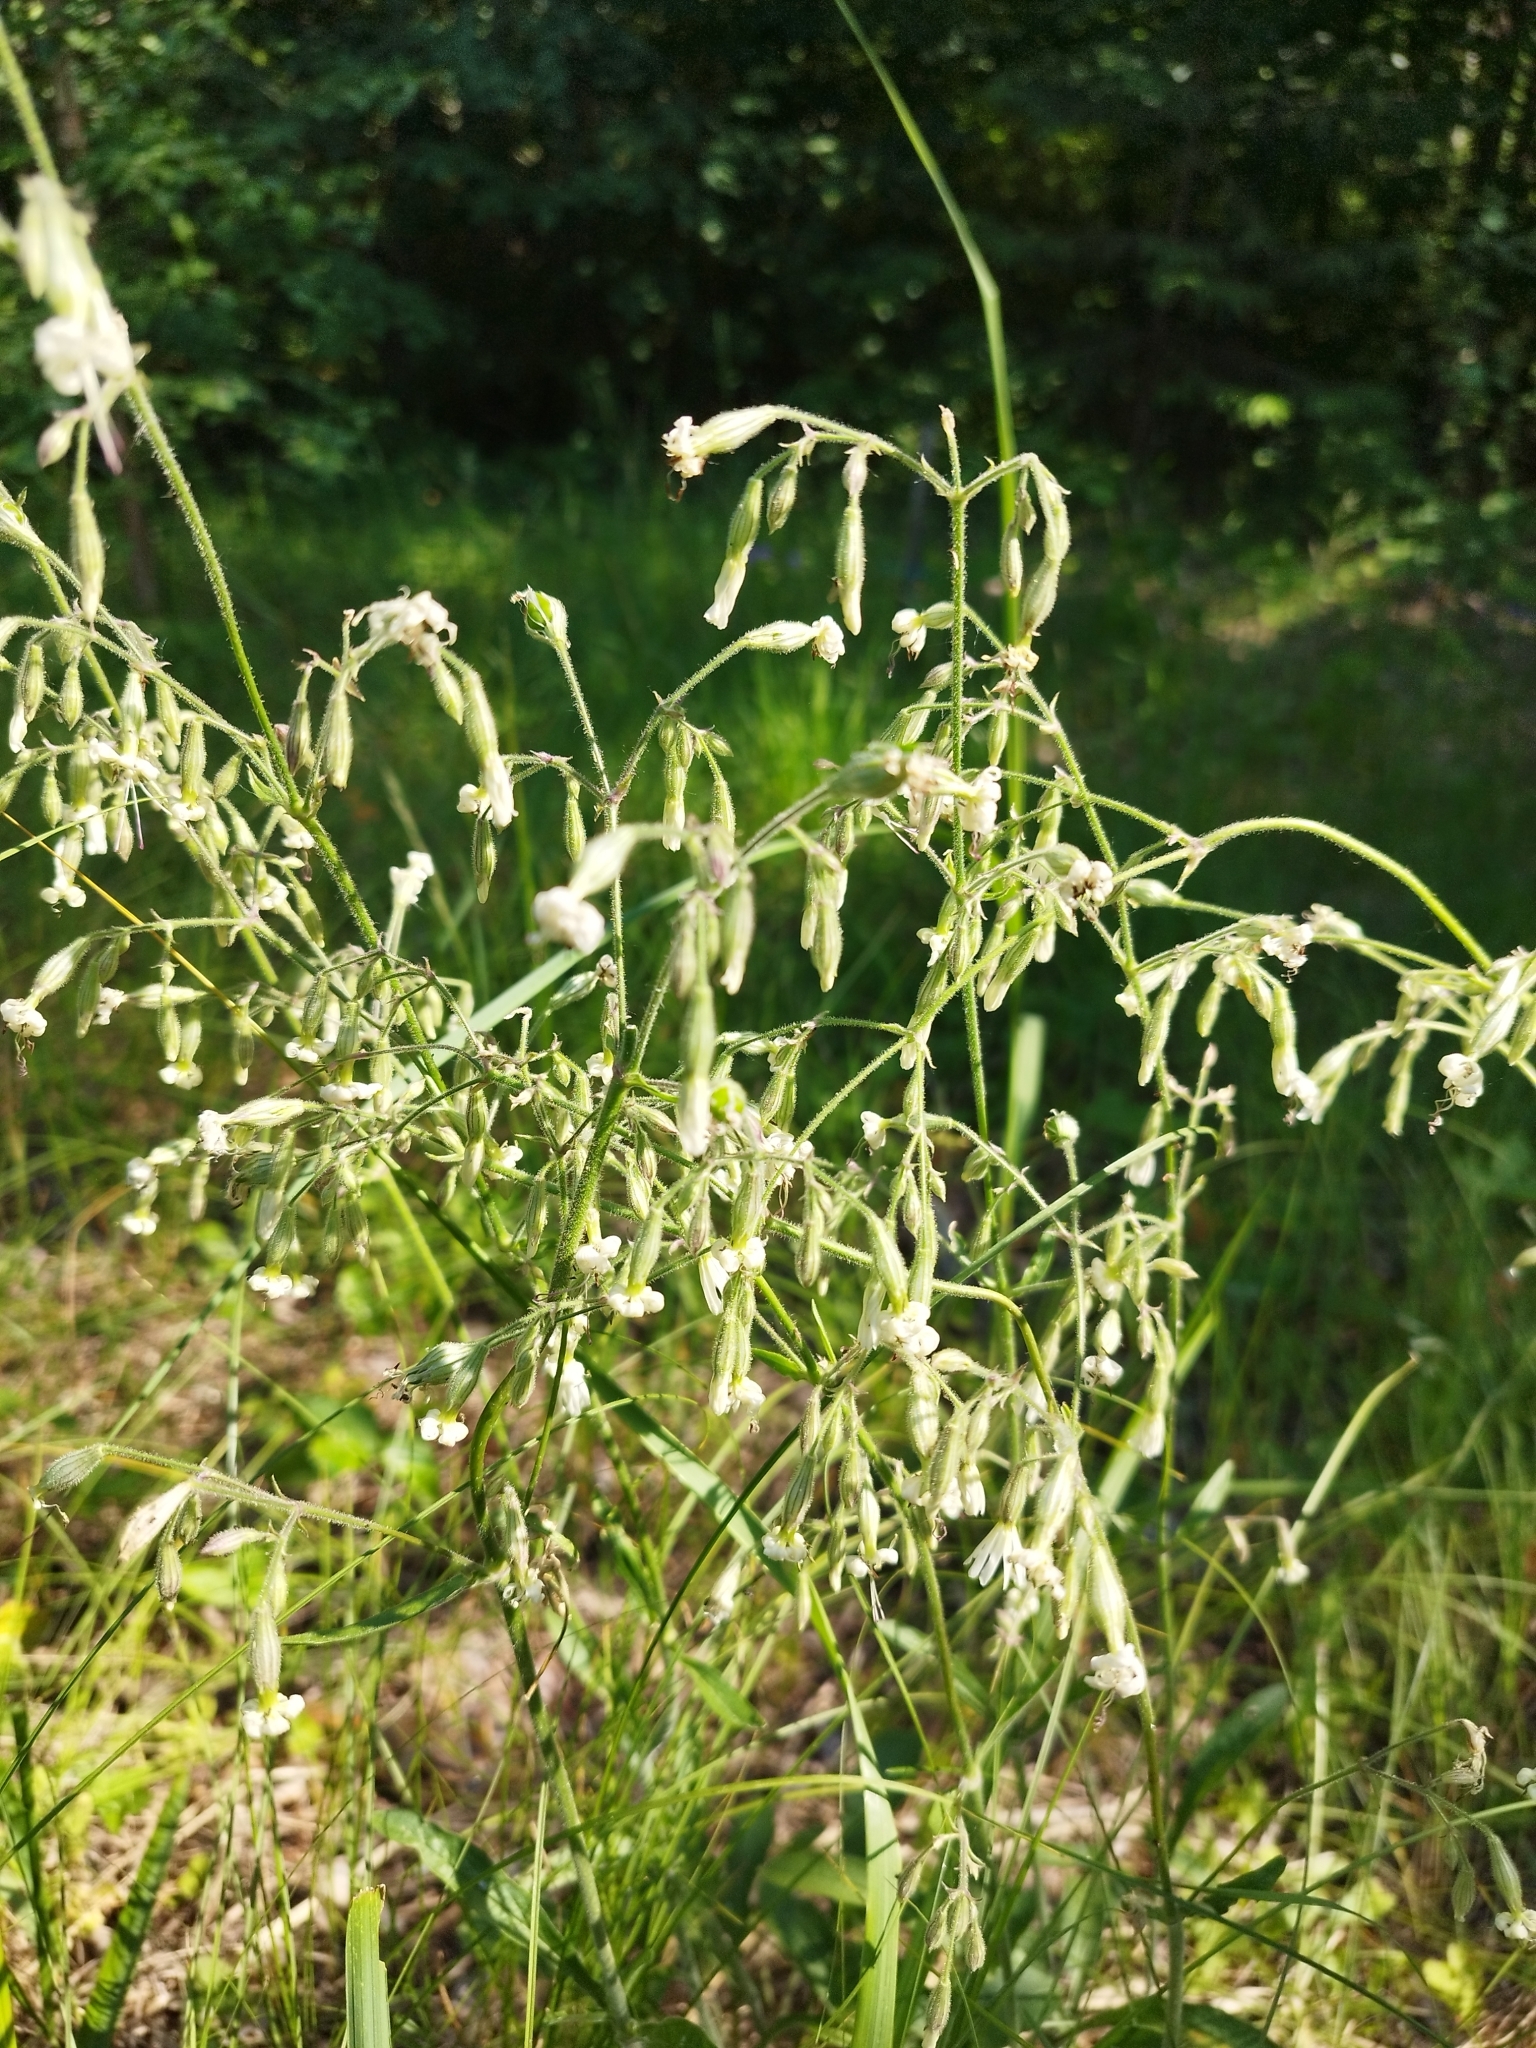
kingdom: Plantae
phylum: Tracheophyta
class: Magnoliopsida
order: Caryophyllales
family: Caryophyllaceae
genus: Silene
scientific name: Silene nutans
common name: Nottingham catchfly
